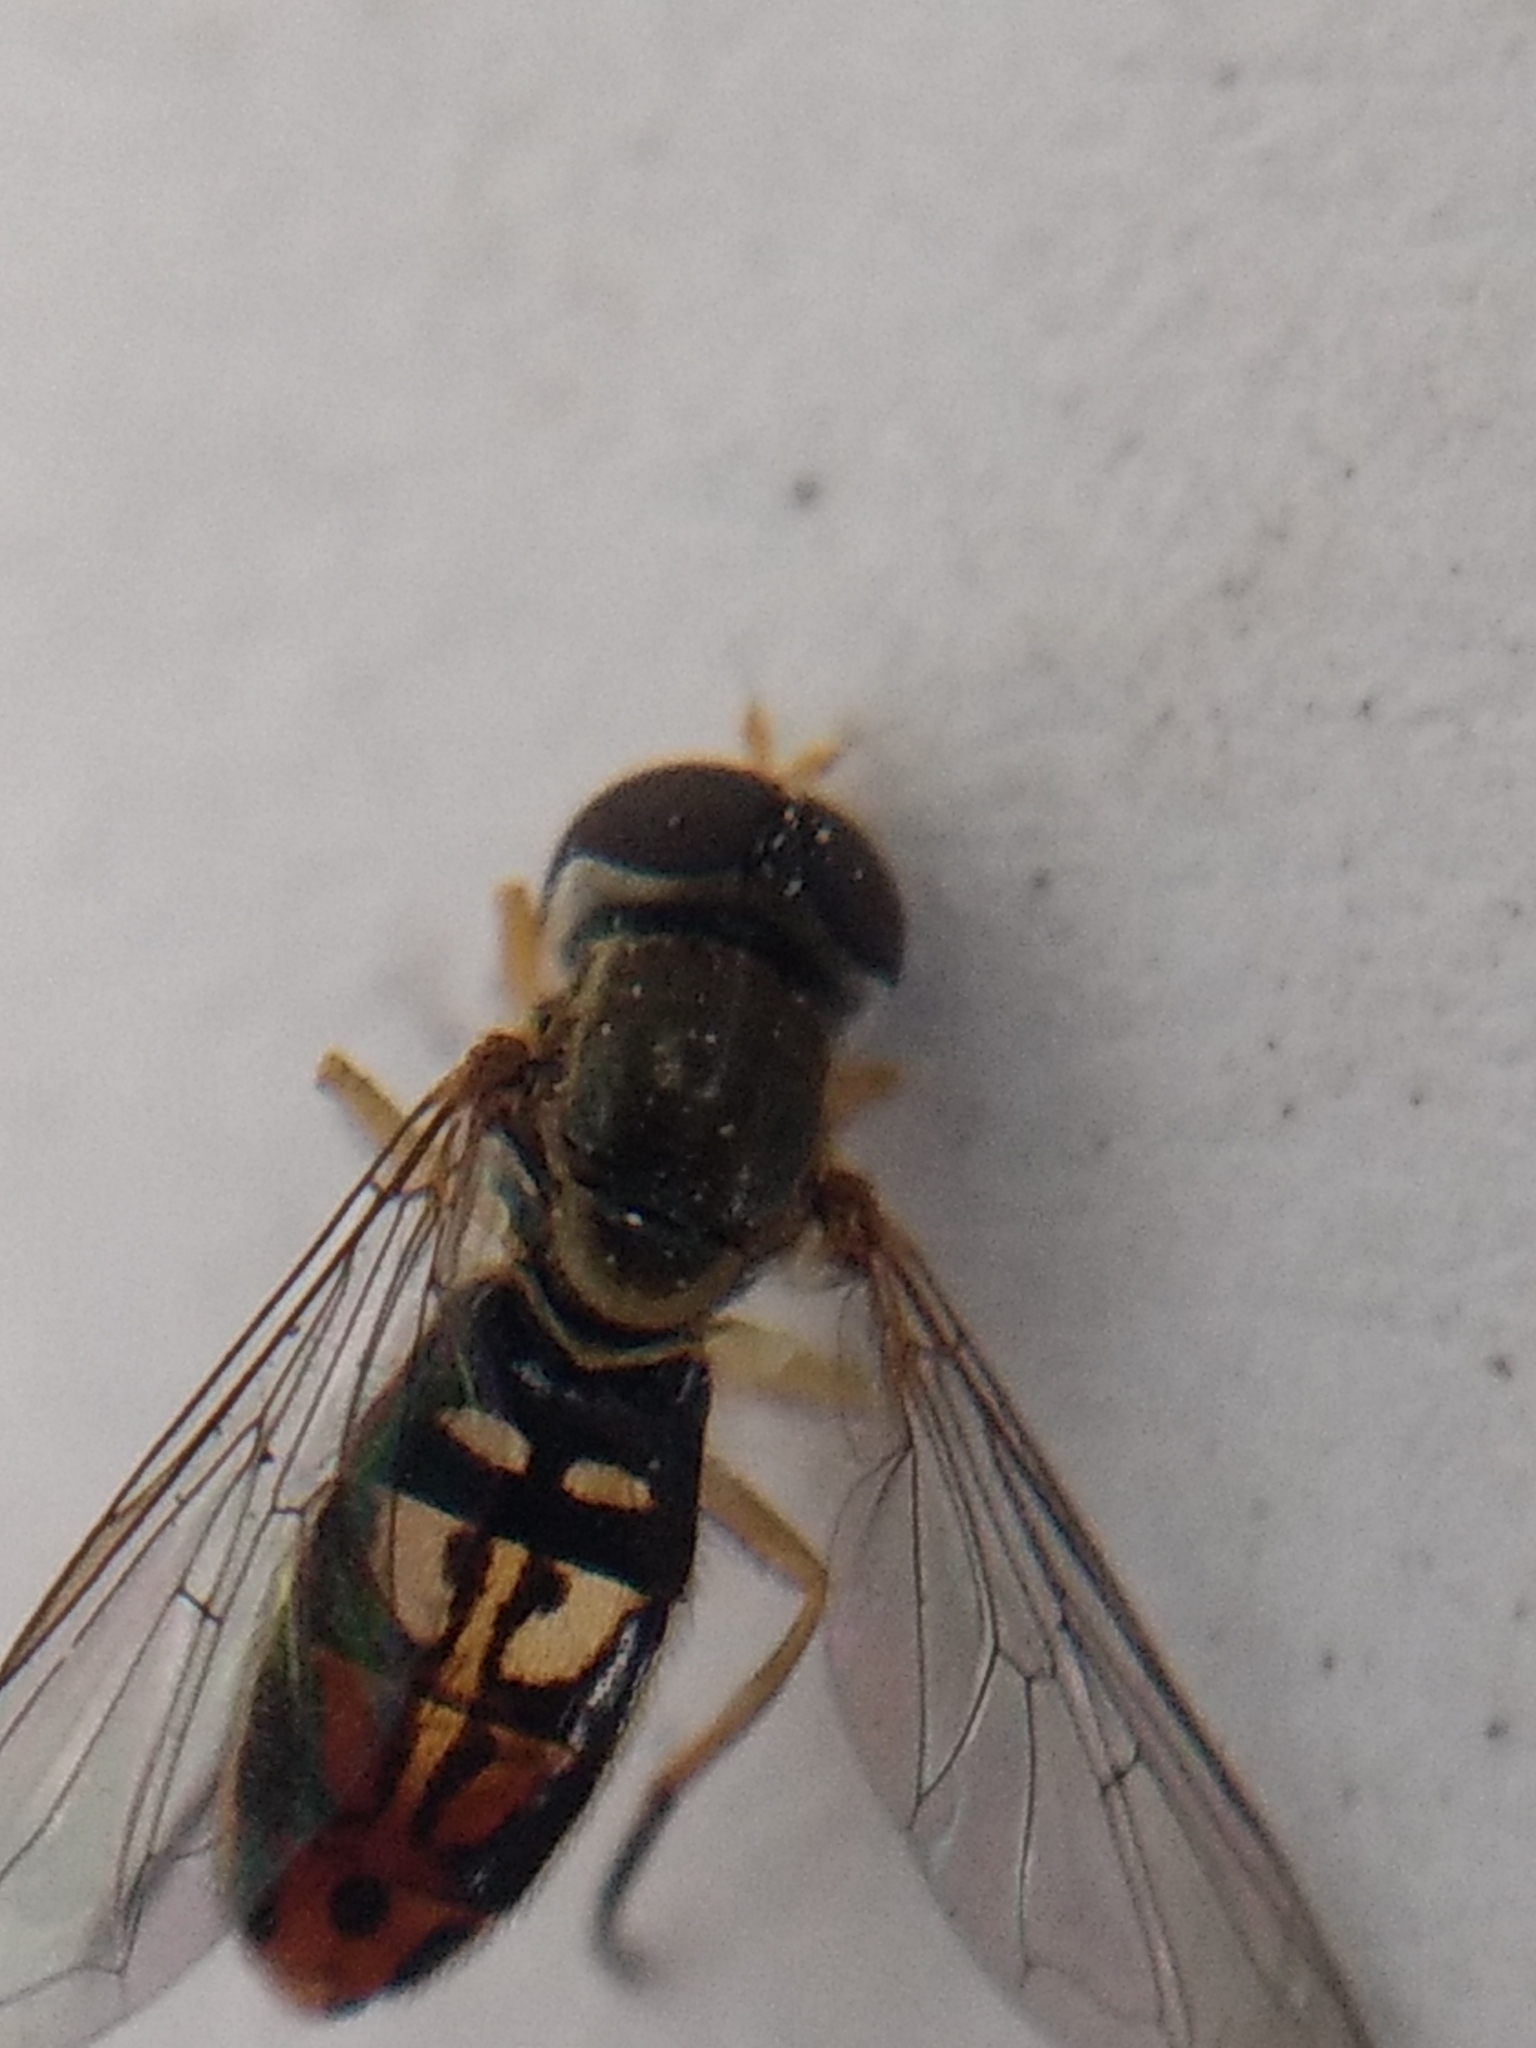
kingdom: Animalia
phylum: Arthropoda
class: Insecta
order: Diptera
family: Syrphidae
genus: Toxomerus
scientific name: Toxomerus marginatus
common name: Syrphid fly
